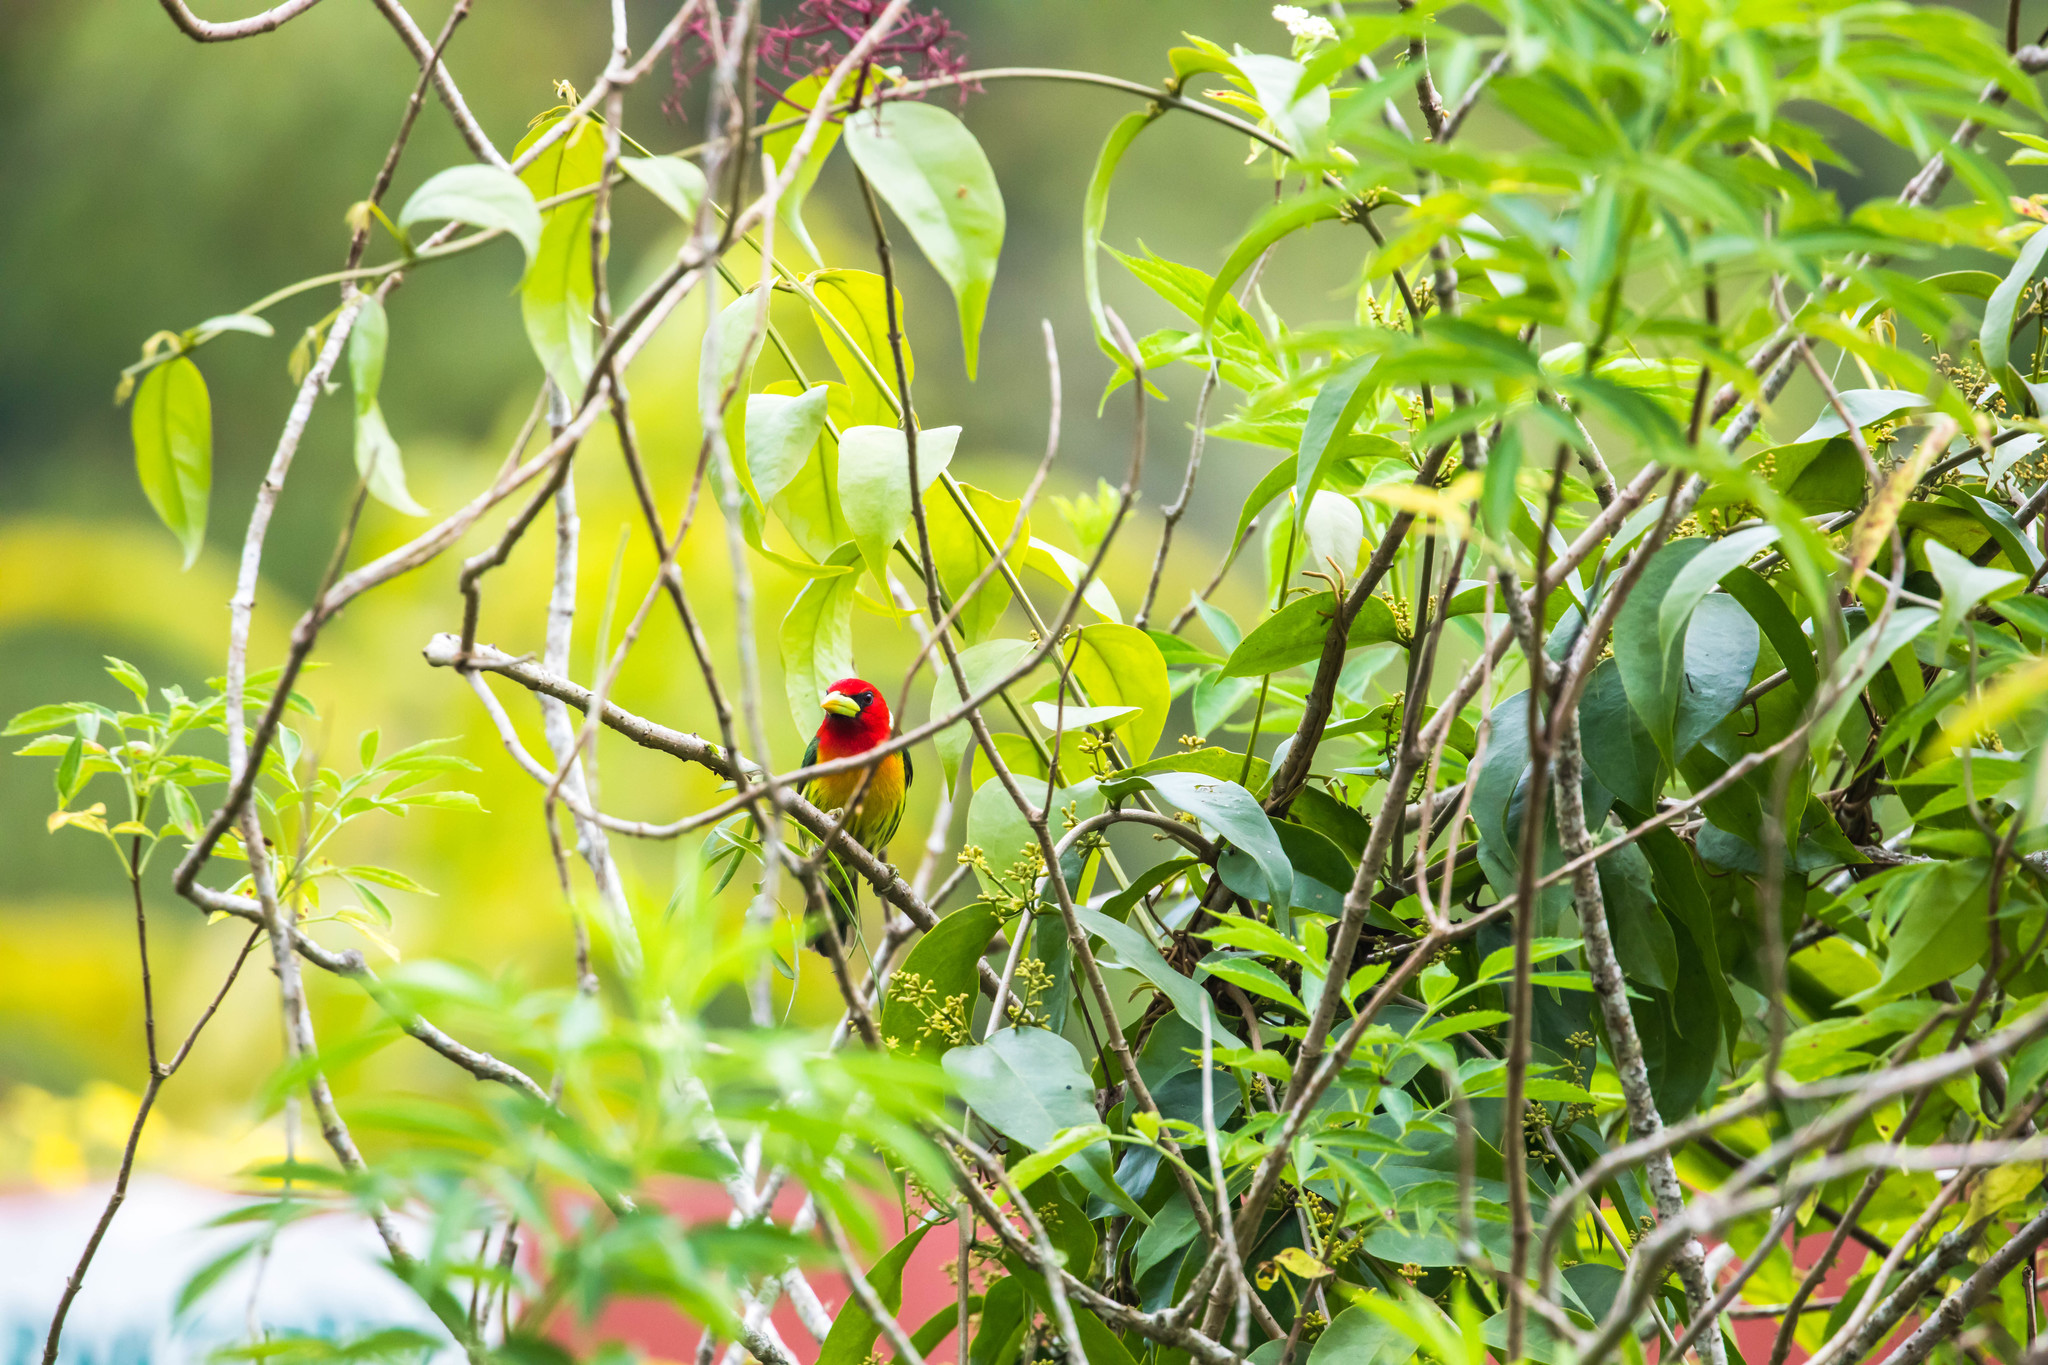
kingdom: Animalia
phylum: Chordata
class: Aves
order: Piciformes
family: Capitonidae
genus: Eubucco
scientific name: Eubucco bourcierii
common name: Red-headed barbet
